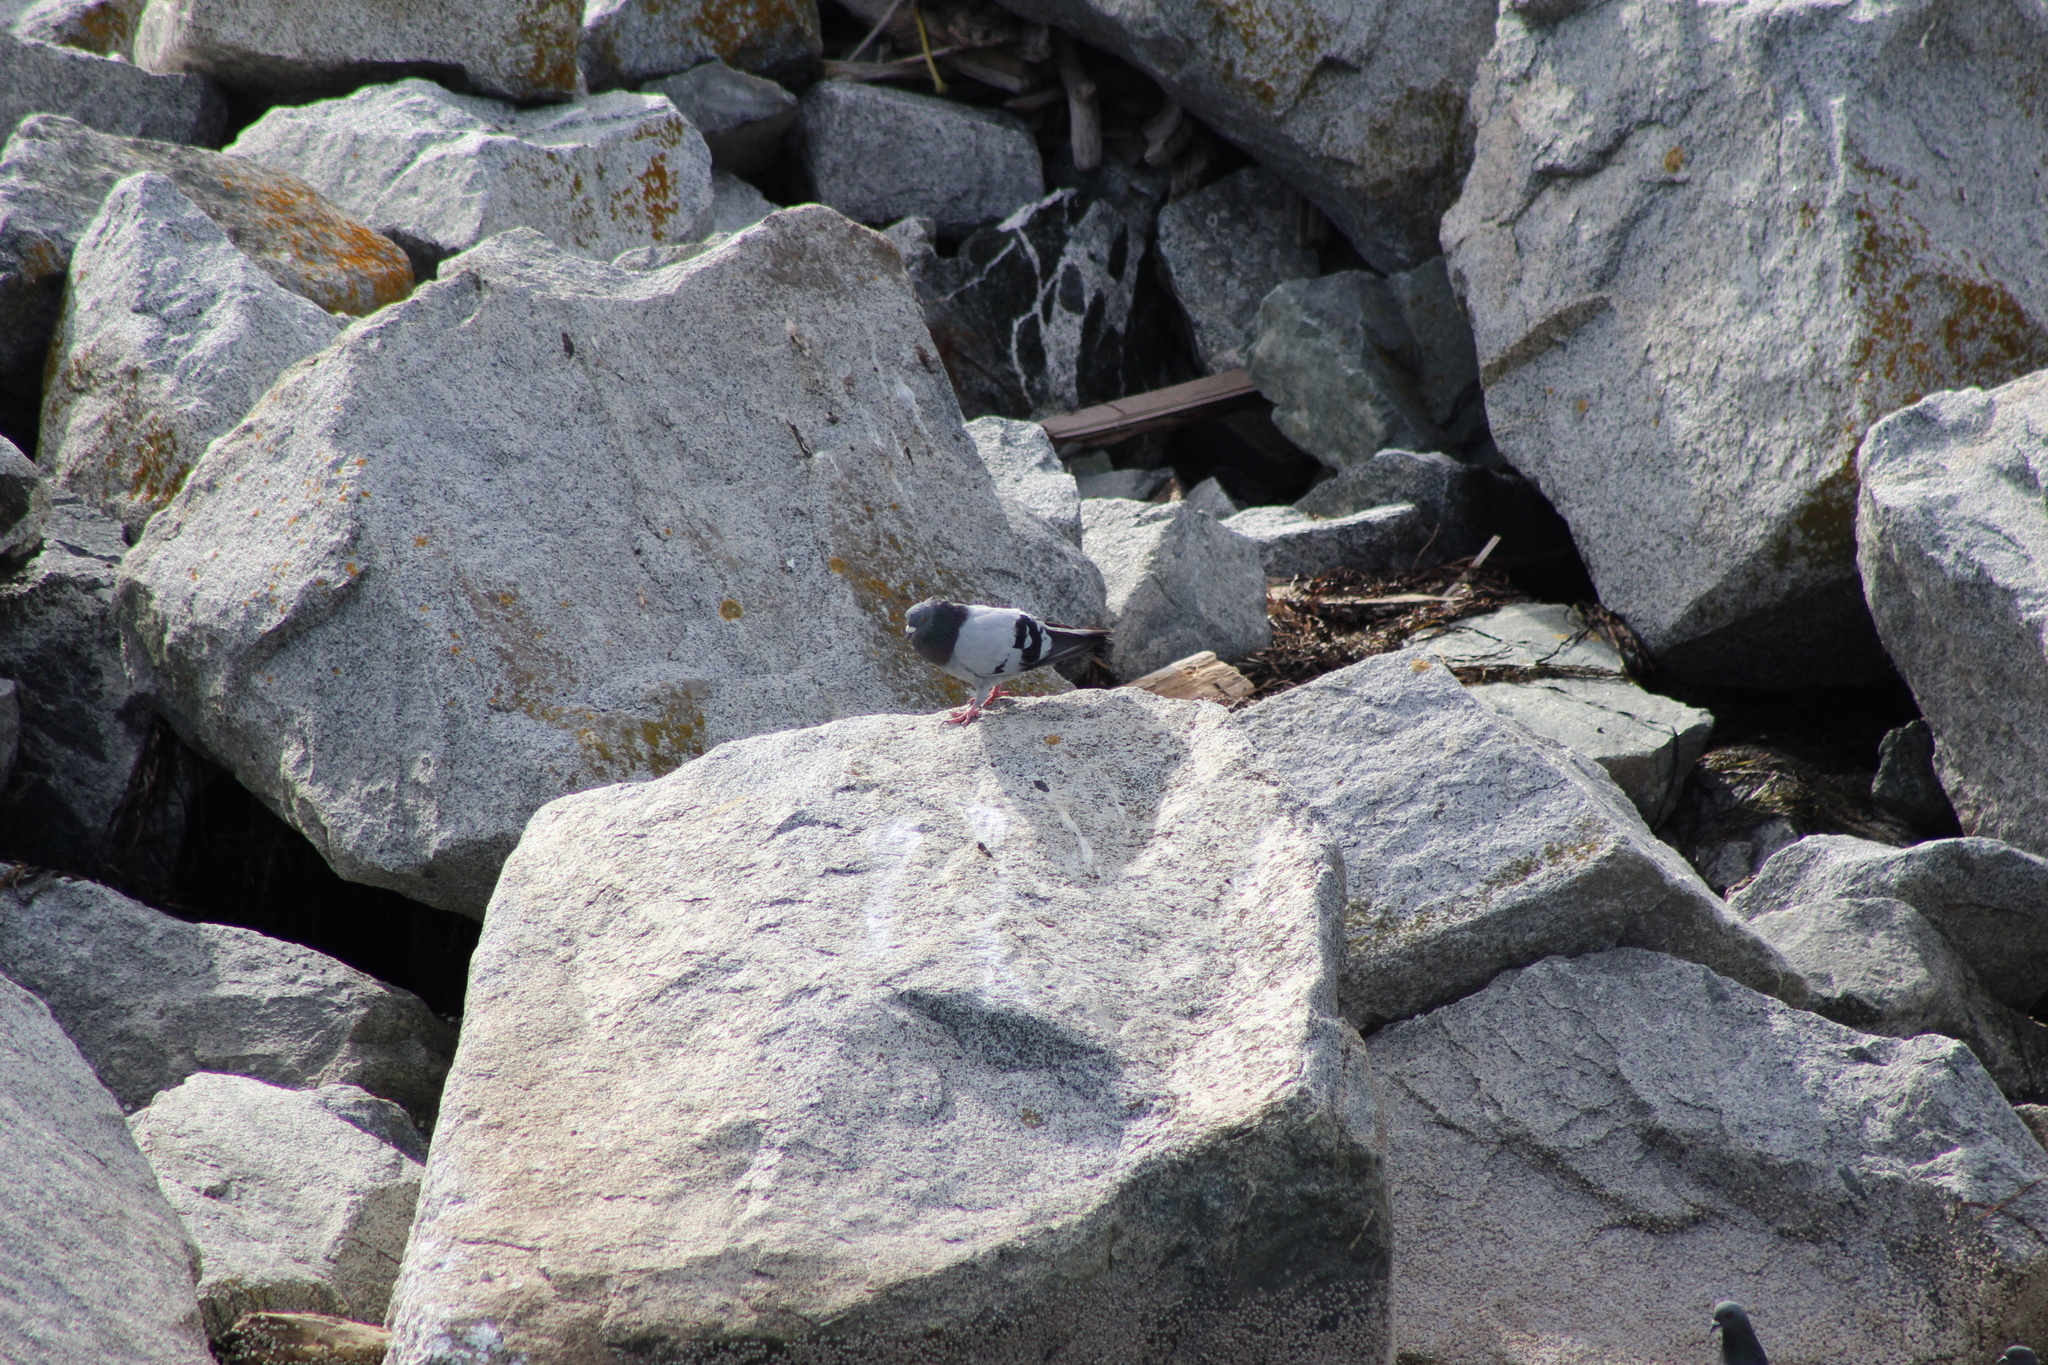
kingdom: Animalia
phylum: Chordata
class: Aves
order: Columbiformes
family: Columbidae
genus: Columba
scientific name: Columba livia
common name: Rock pigeon
